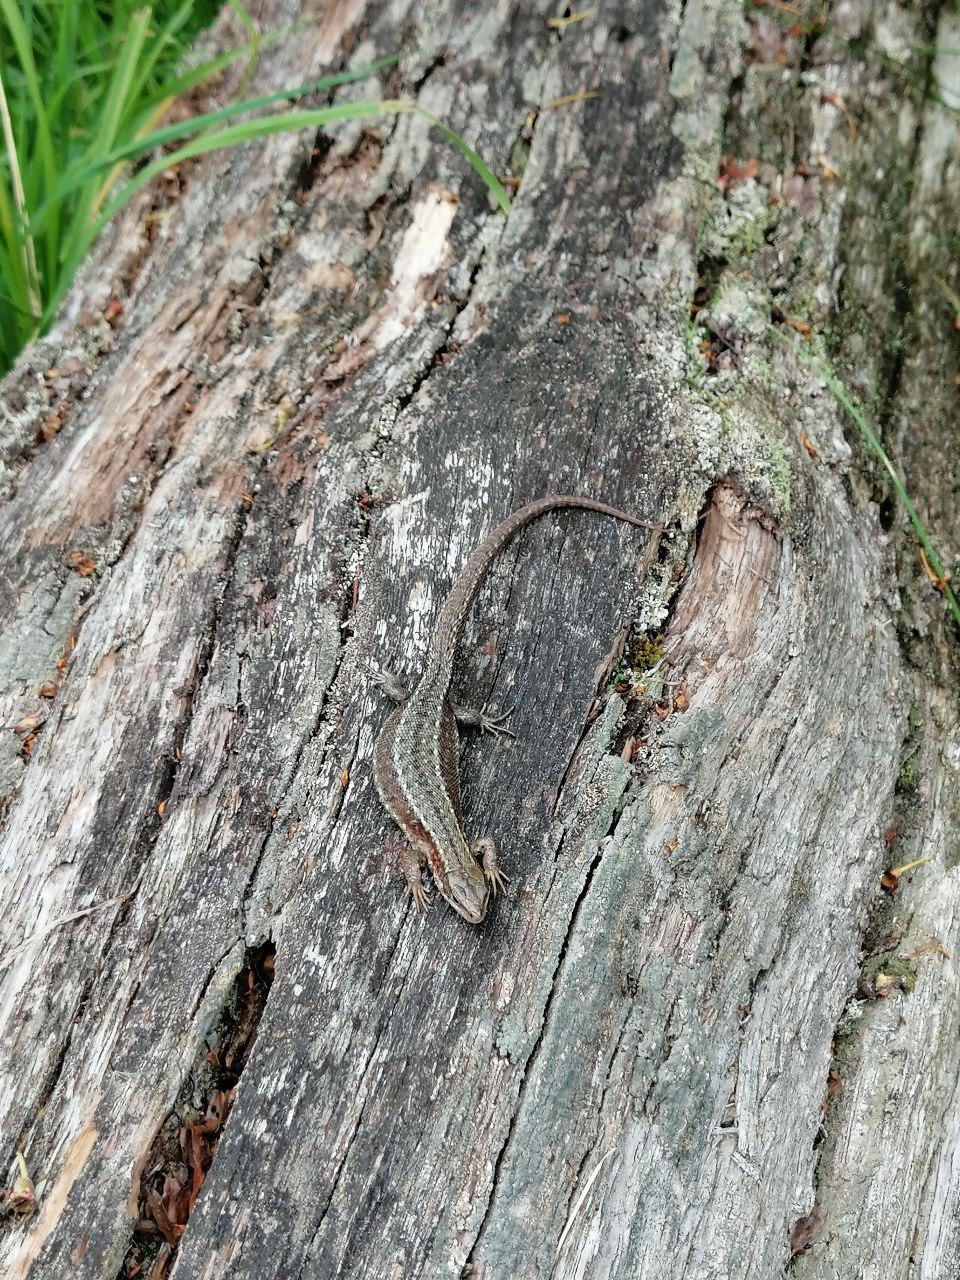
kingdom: Animalia
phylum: Chordata
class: Squamata
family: Lacertidae
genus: Zootoca
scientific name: Zootoca vivipara
